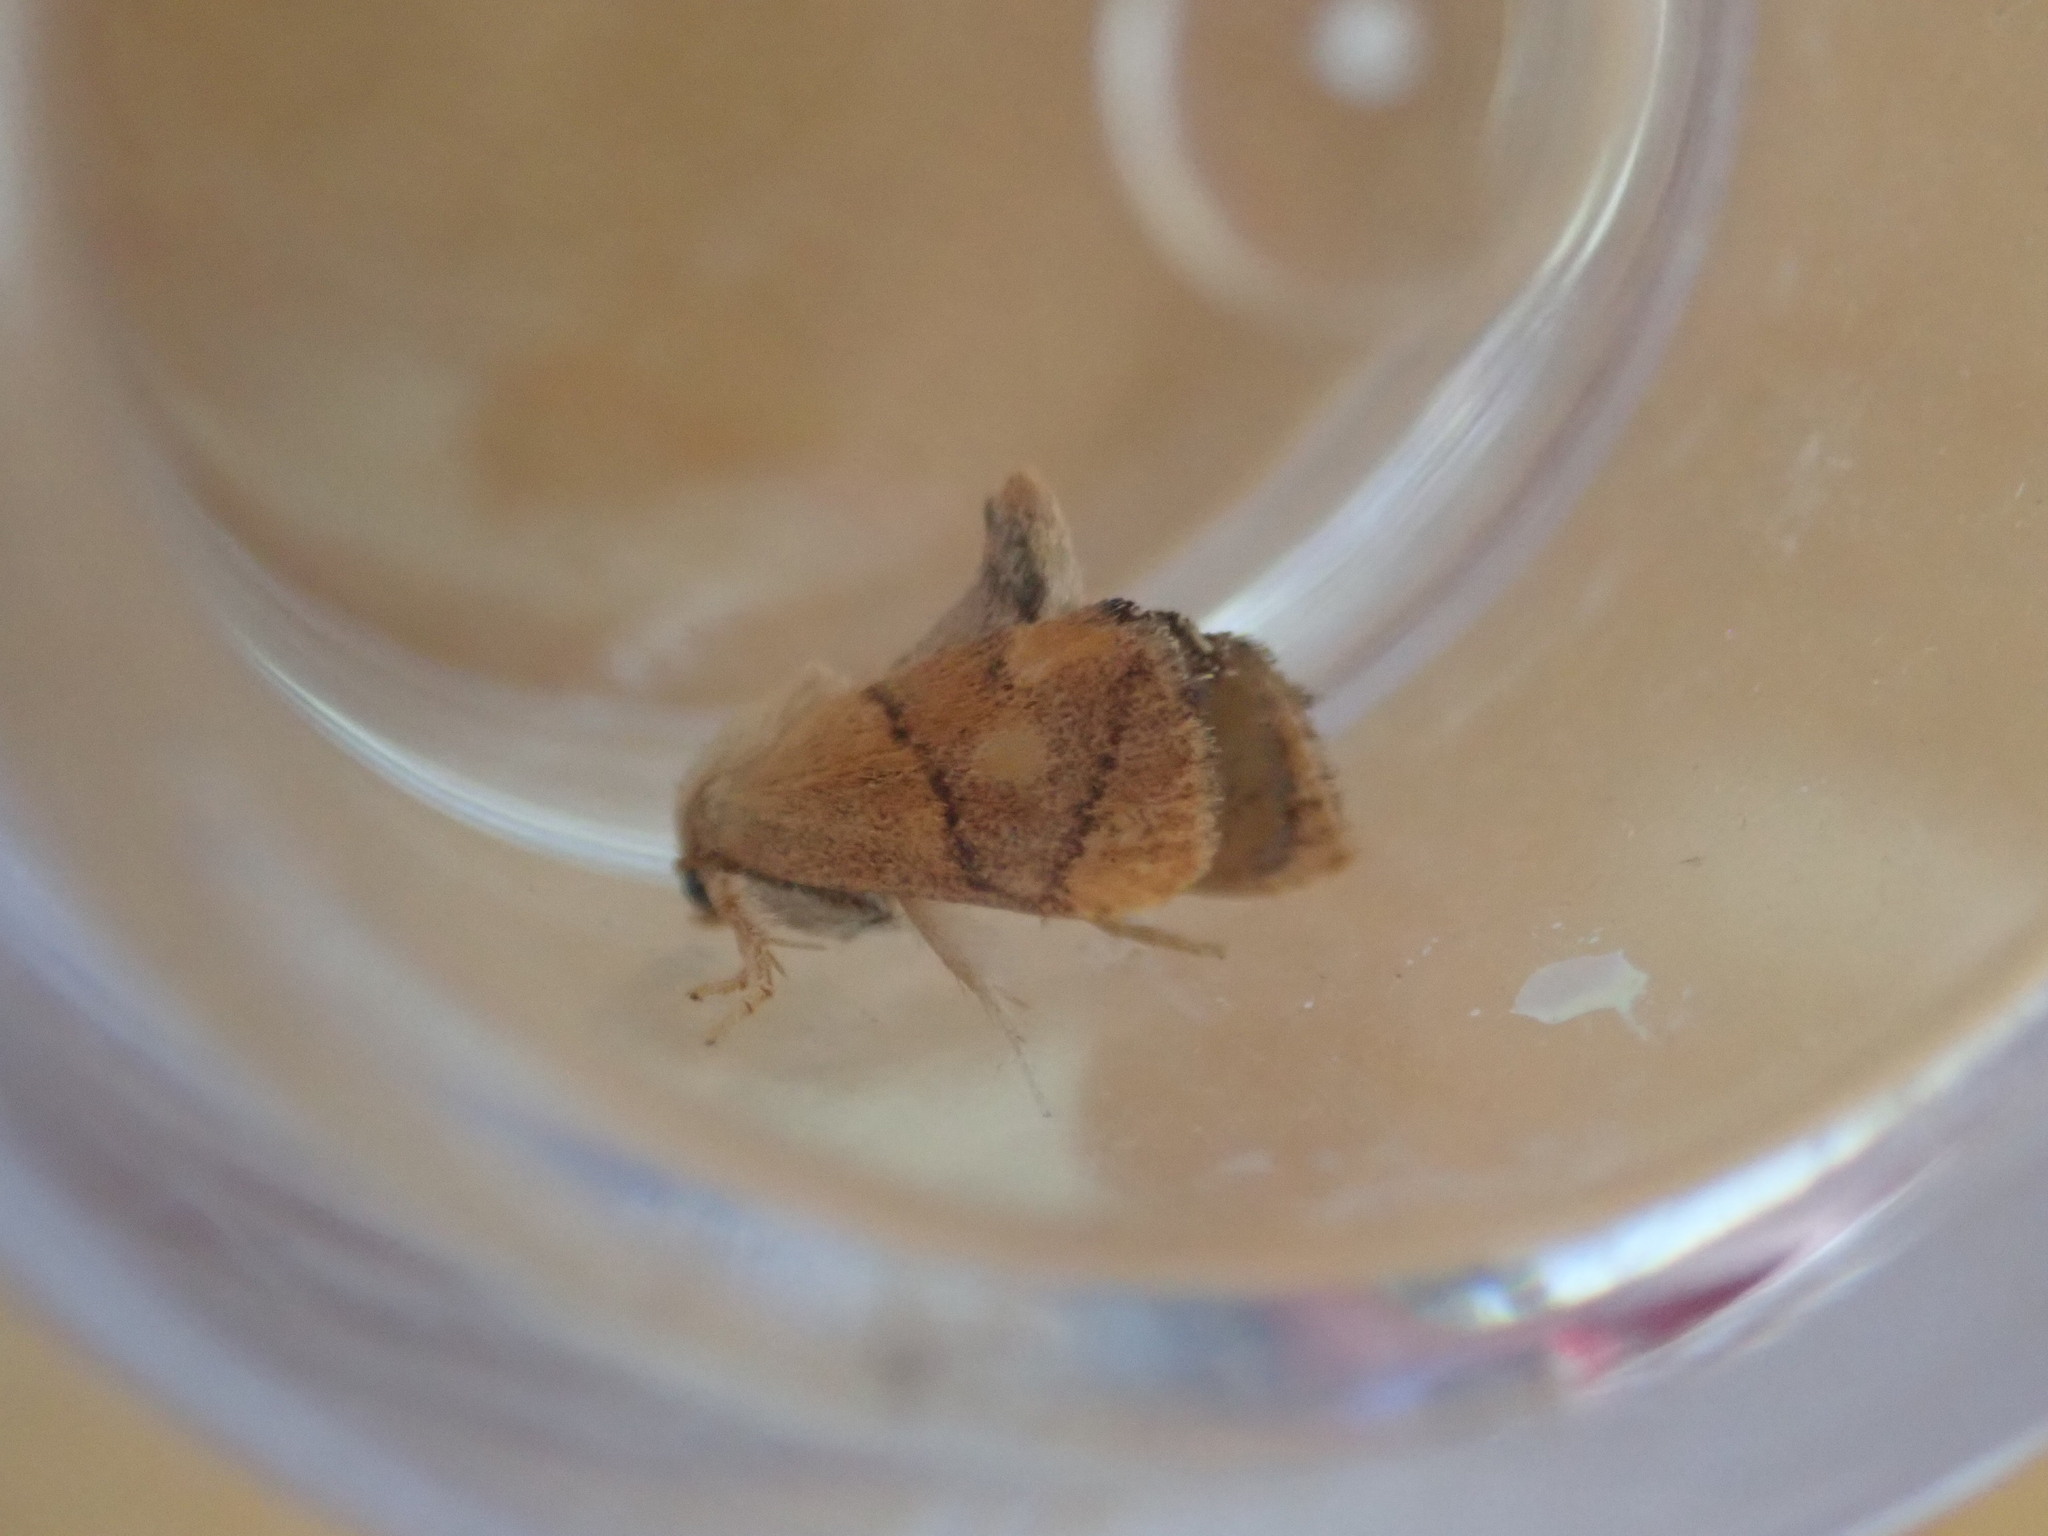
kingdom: Animalia
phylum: Arthropoda
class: Insecta
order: Lepidoptera
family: Limacodidae
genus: Apoda
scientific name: Apoda limacodes
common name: Festoon
